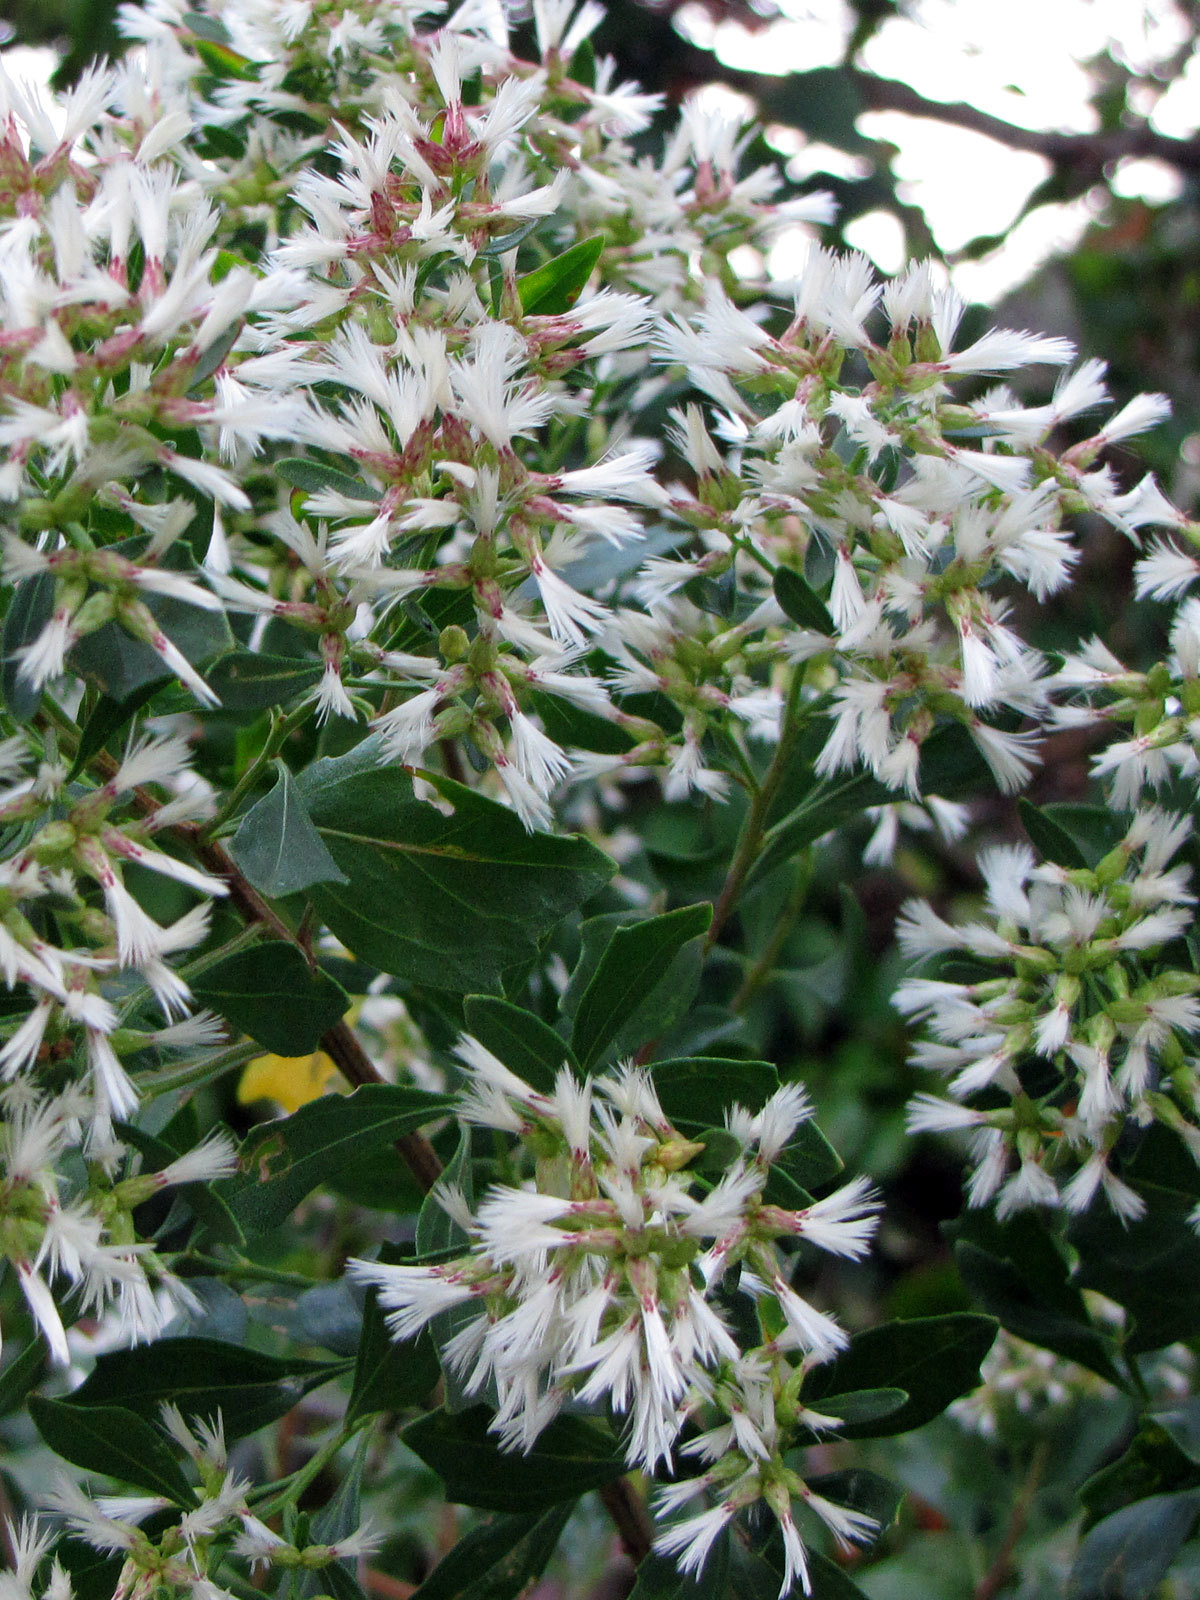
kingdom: Plantae
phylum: Tracheophyta
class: Magnoliopsida
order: Asterales
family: Asteraceae
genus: Baccharis
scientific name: Baccharis halimifolia
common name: Eastern baccharis
